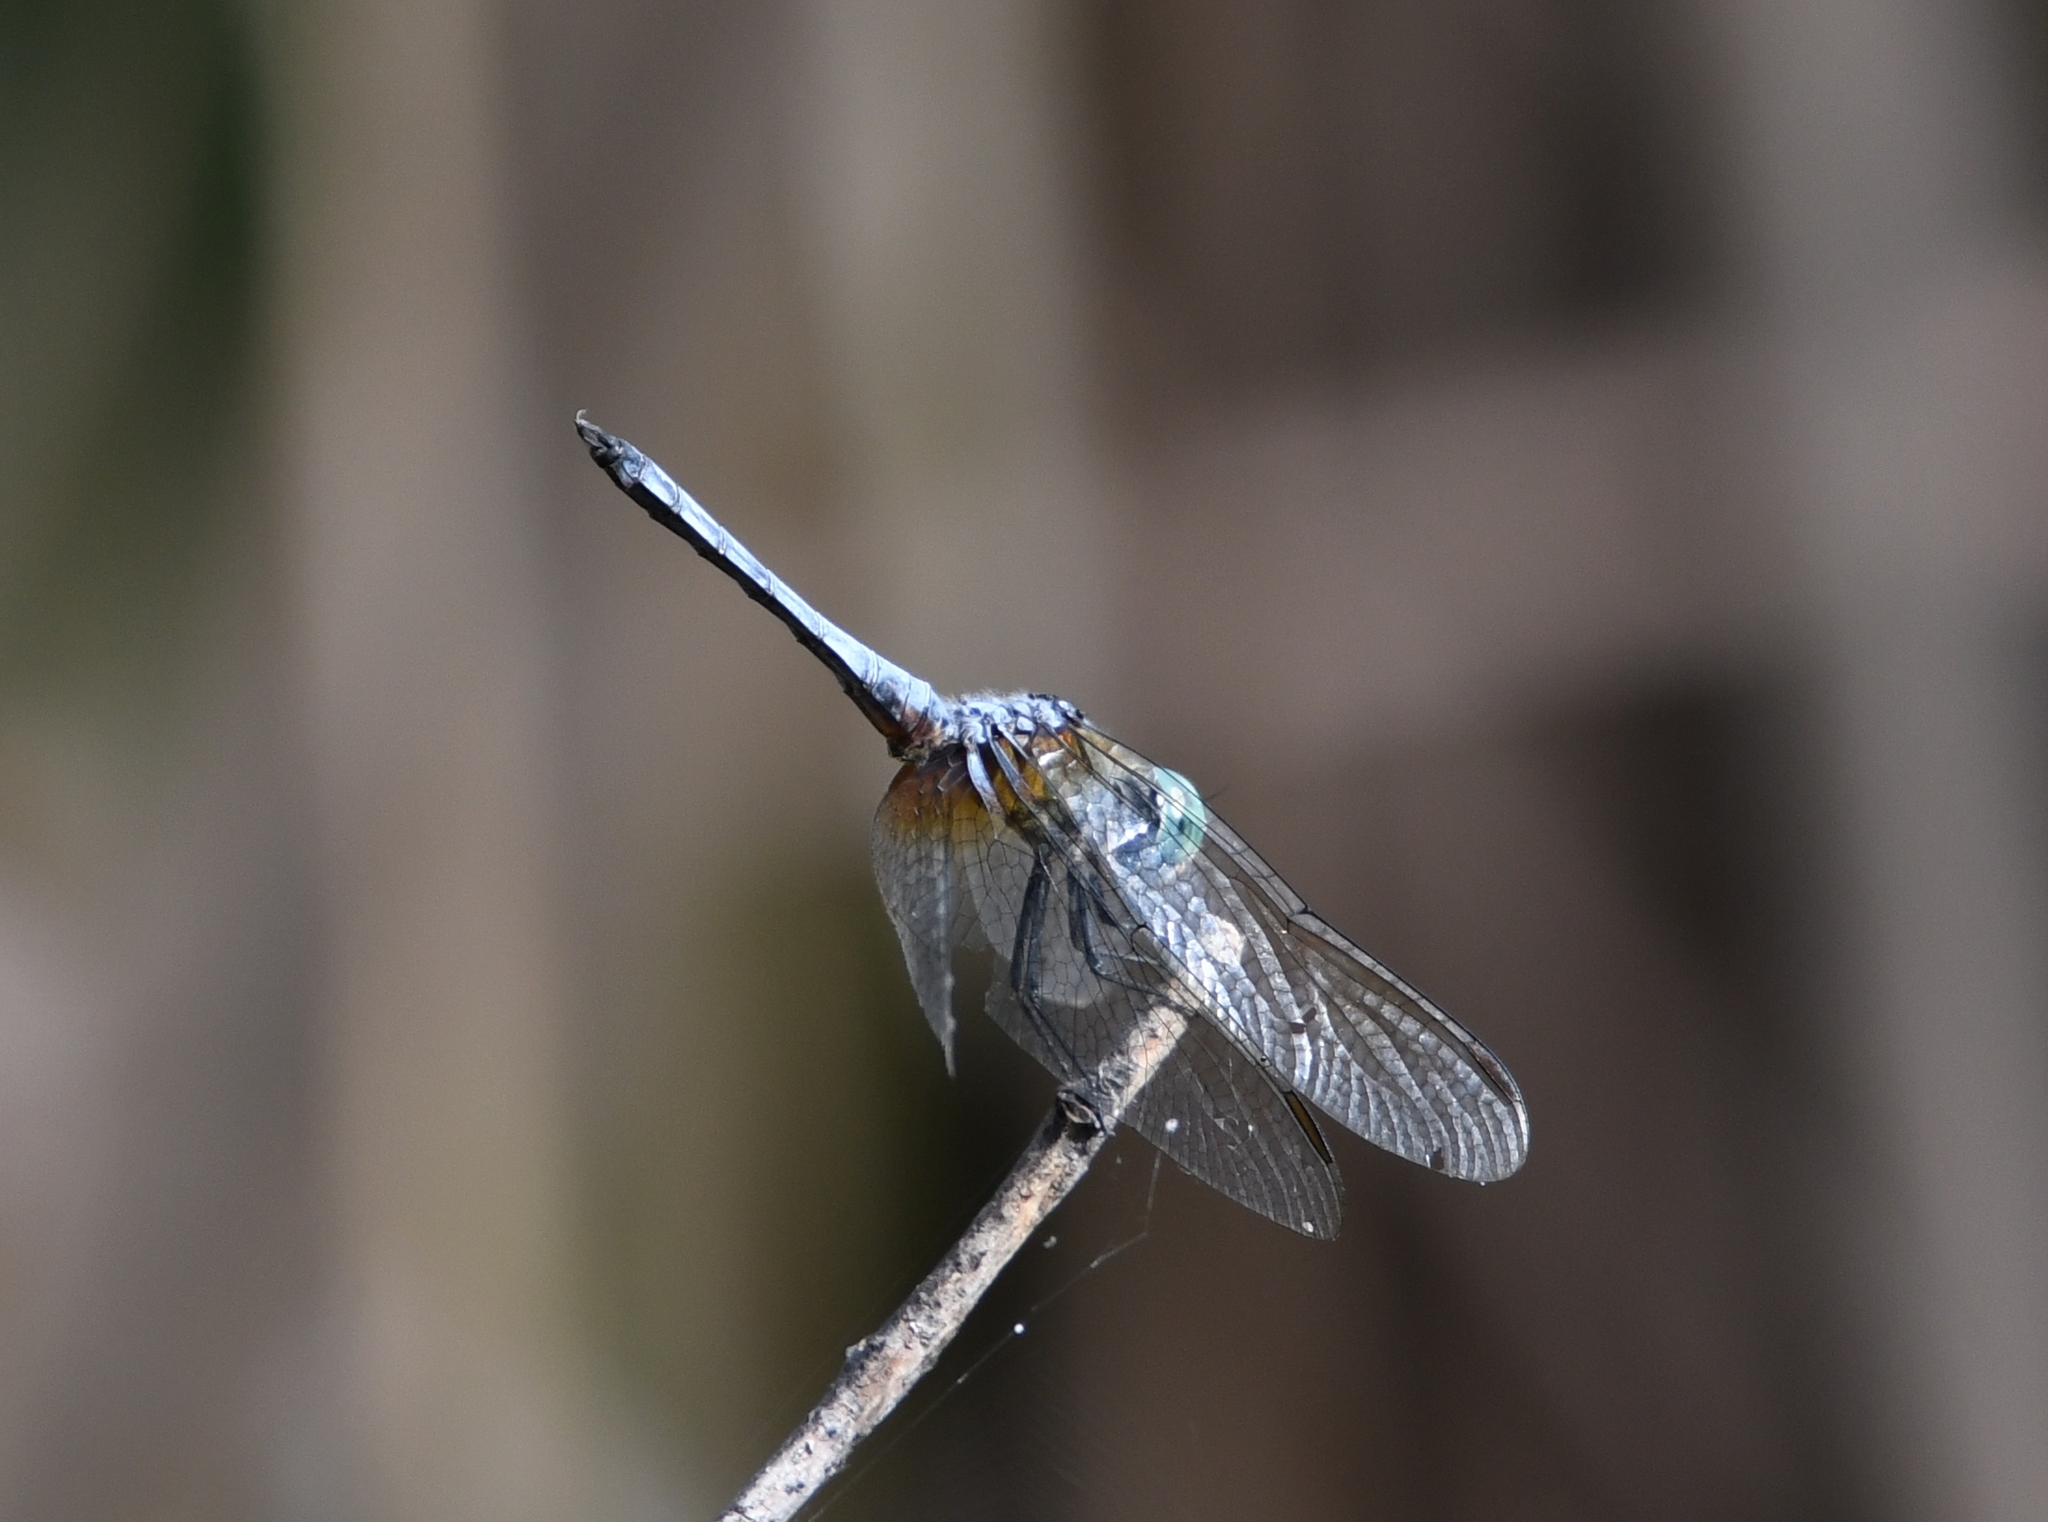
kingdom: Animalia
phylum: Arthropoda
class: Insecta
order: Odonata
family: Libellulidae
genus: Pachydiplax
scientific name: Pachydiplax longipennis
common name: Blue dasher
